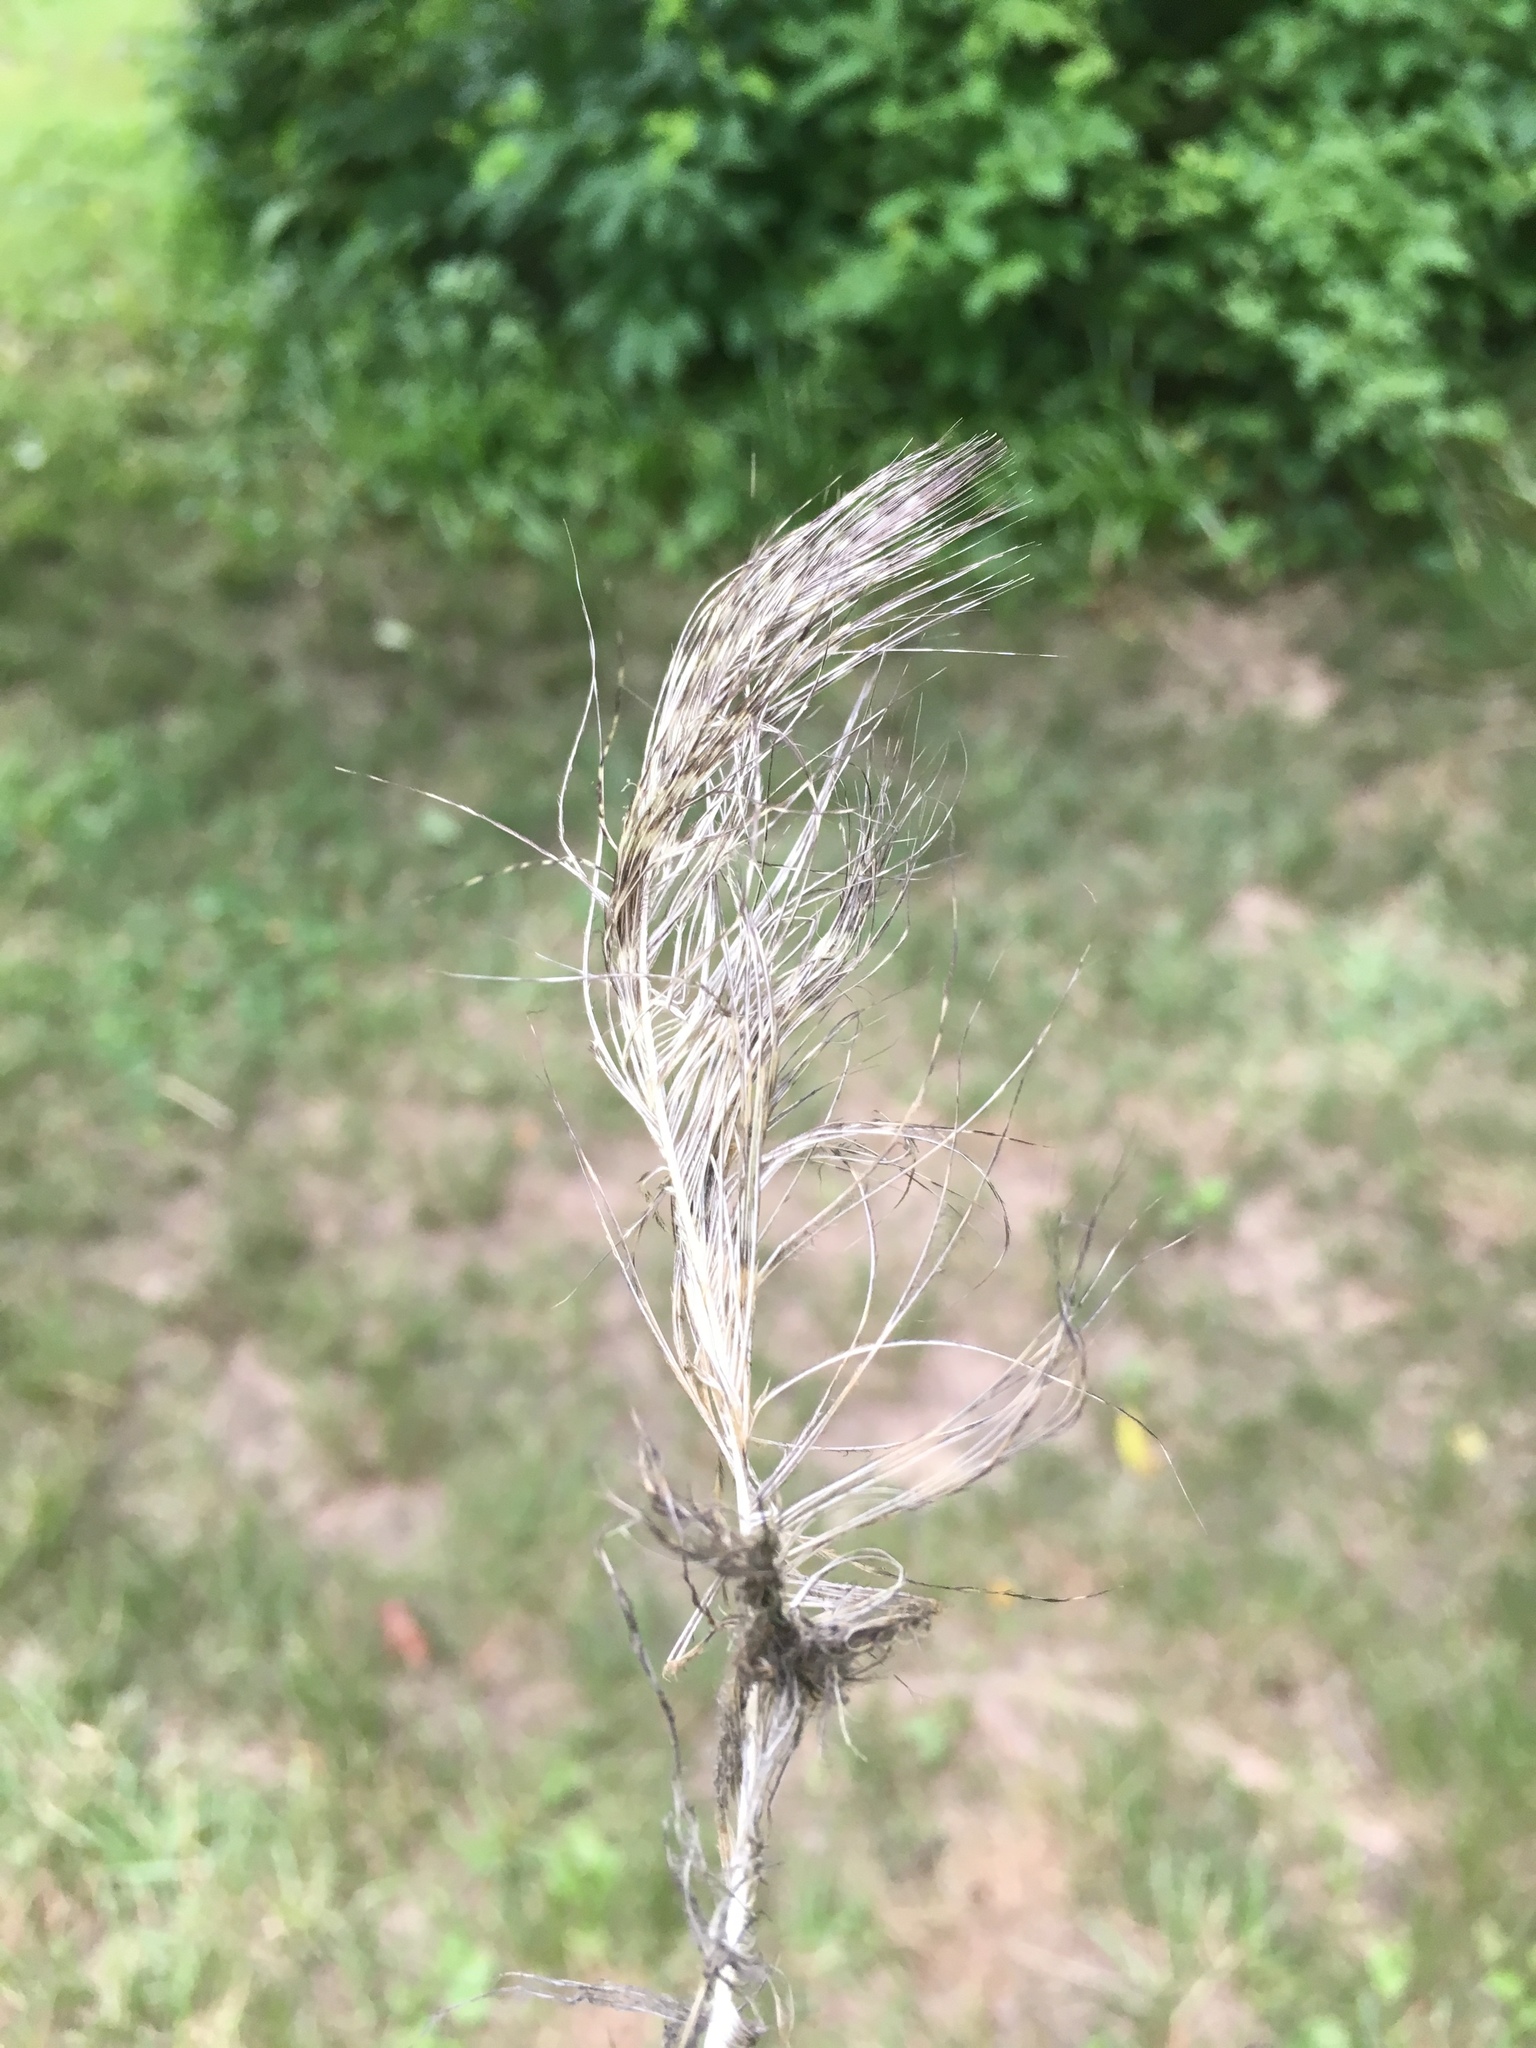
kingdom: Animalia
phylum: Chordata
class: Aves
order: Strigiformes
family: Strigidae
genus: Bubo
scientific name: Bubo virginianus
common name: Great horned owl
